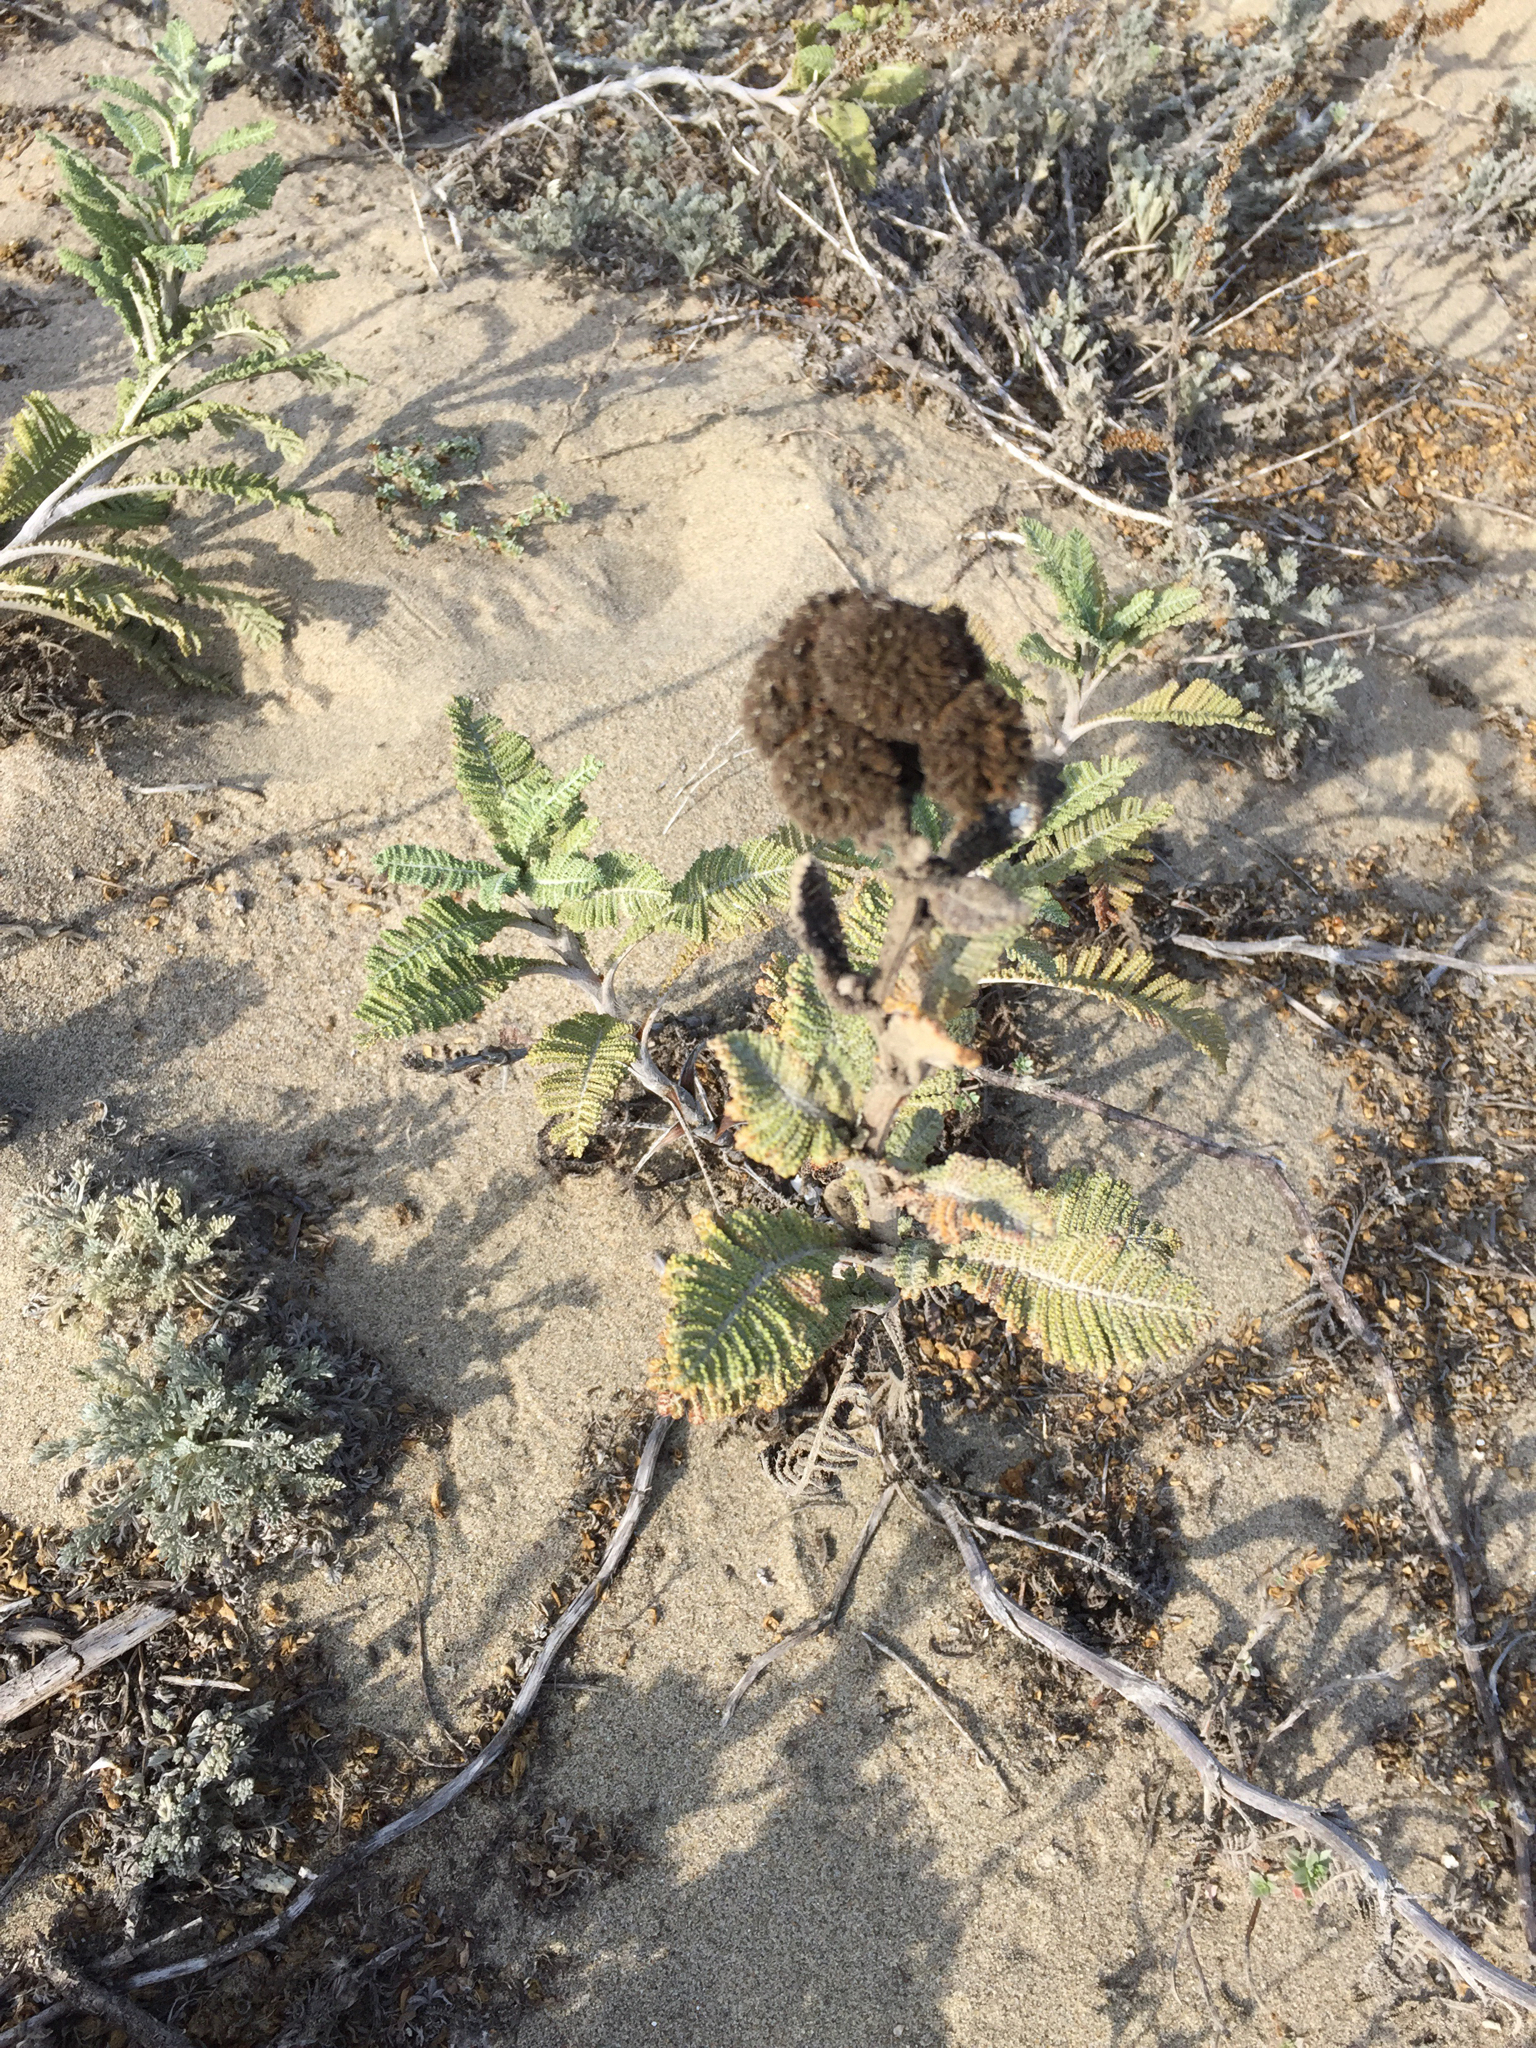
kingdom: Plantae
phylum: Tracheophyta
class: Magnoliopsida
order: Asterales
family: Asteraceae
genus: Tanacetum
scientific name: Tanacetum bipinnatum
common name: Dwarf tansy
